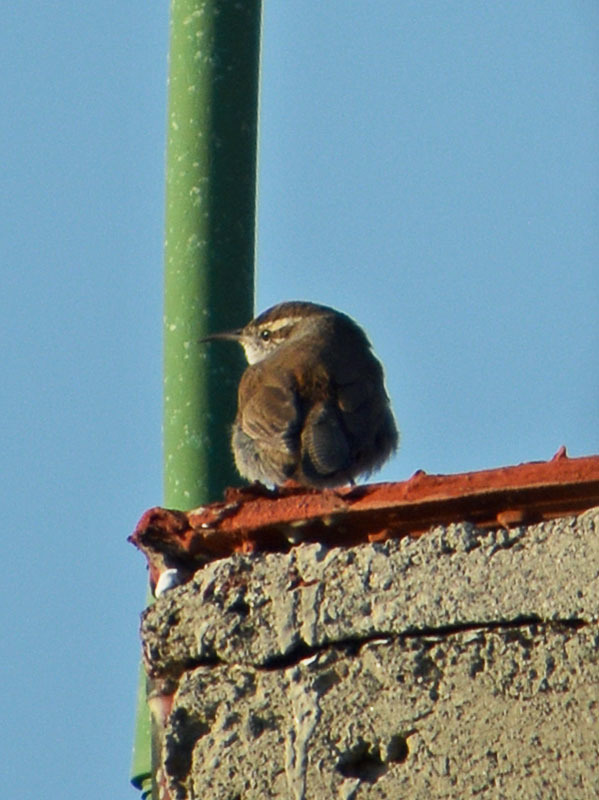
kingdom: Animalia
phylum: Chordata
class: Aves
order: Passeriformes
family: Troglodytidae
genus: Thryomanes
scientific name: Thryomanes bewickii
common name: Bewick's wren
